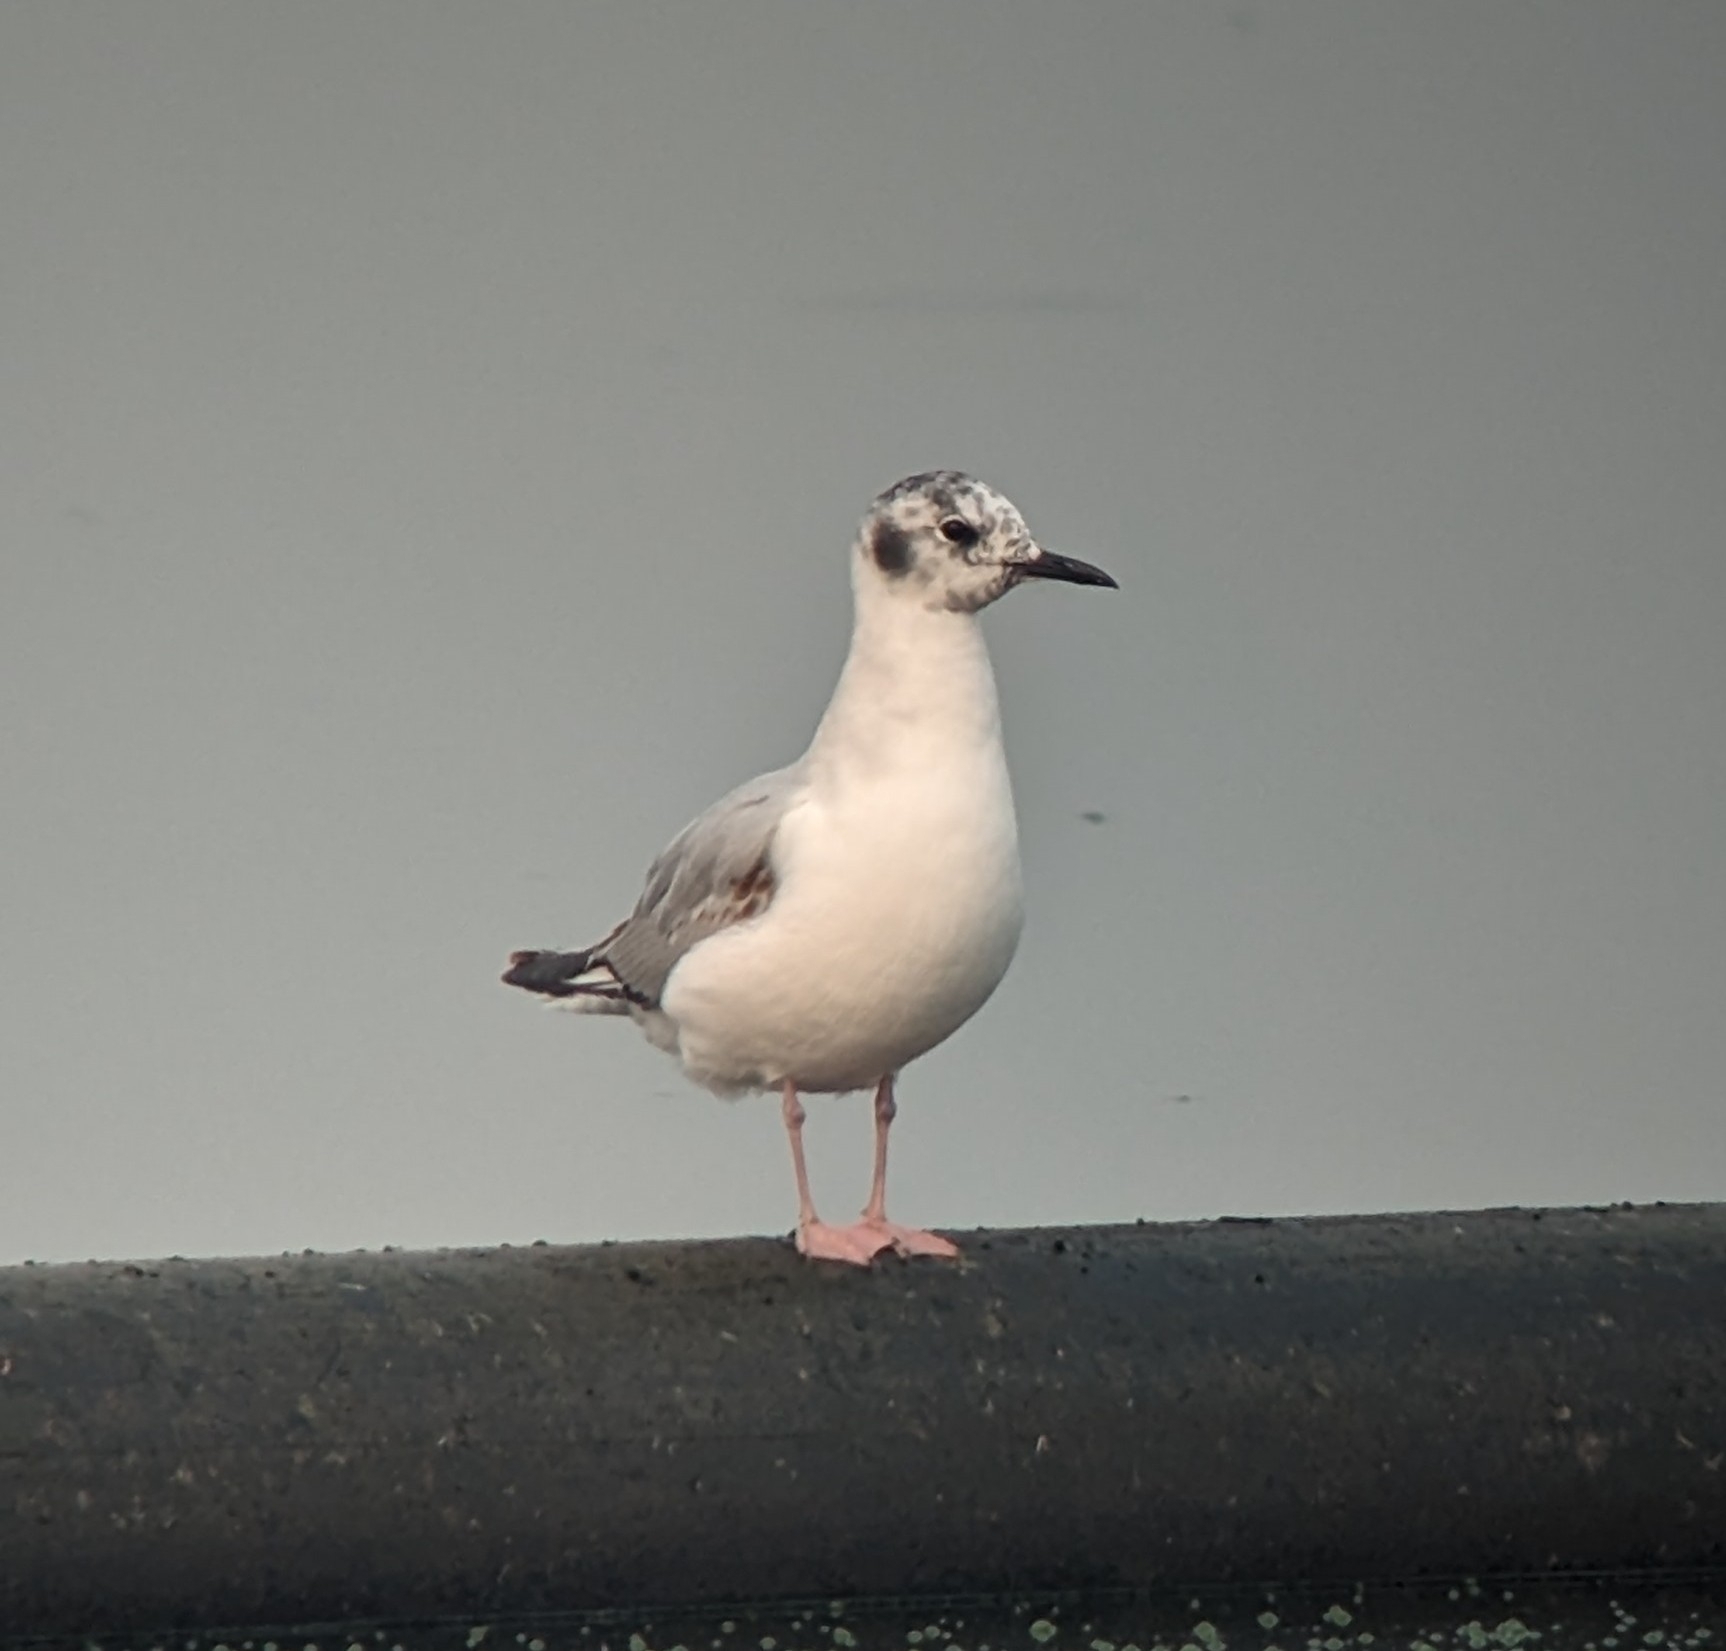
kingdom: Animalia
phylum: Chordata
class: Aves
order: Charadriiformes
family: Laridae
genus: Chroicocephalus
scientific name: Chroicocephalus philadelphia
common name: Bonaparte's gull
